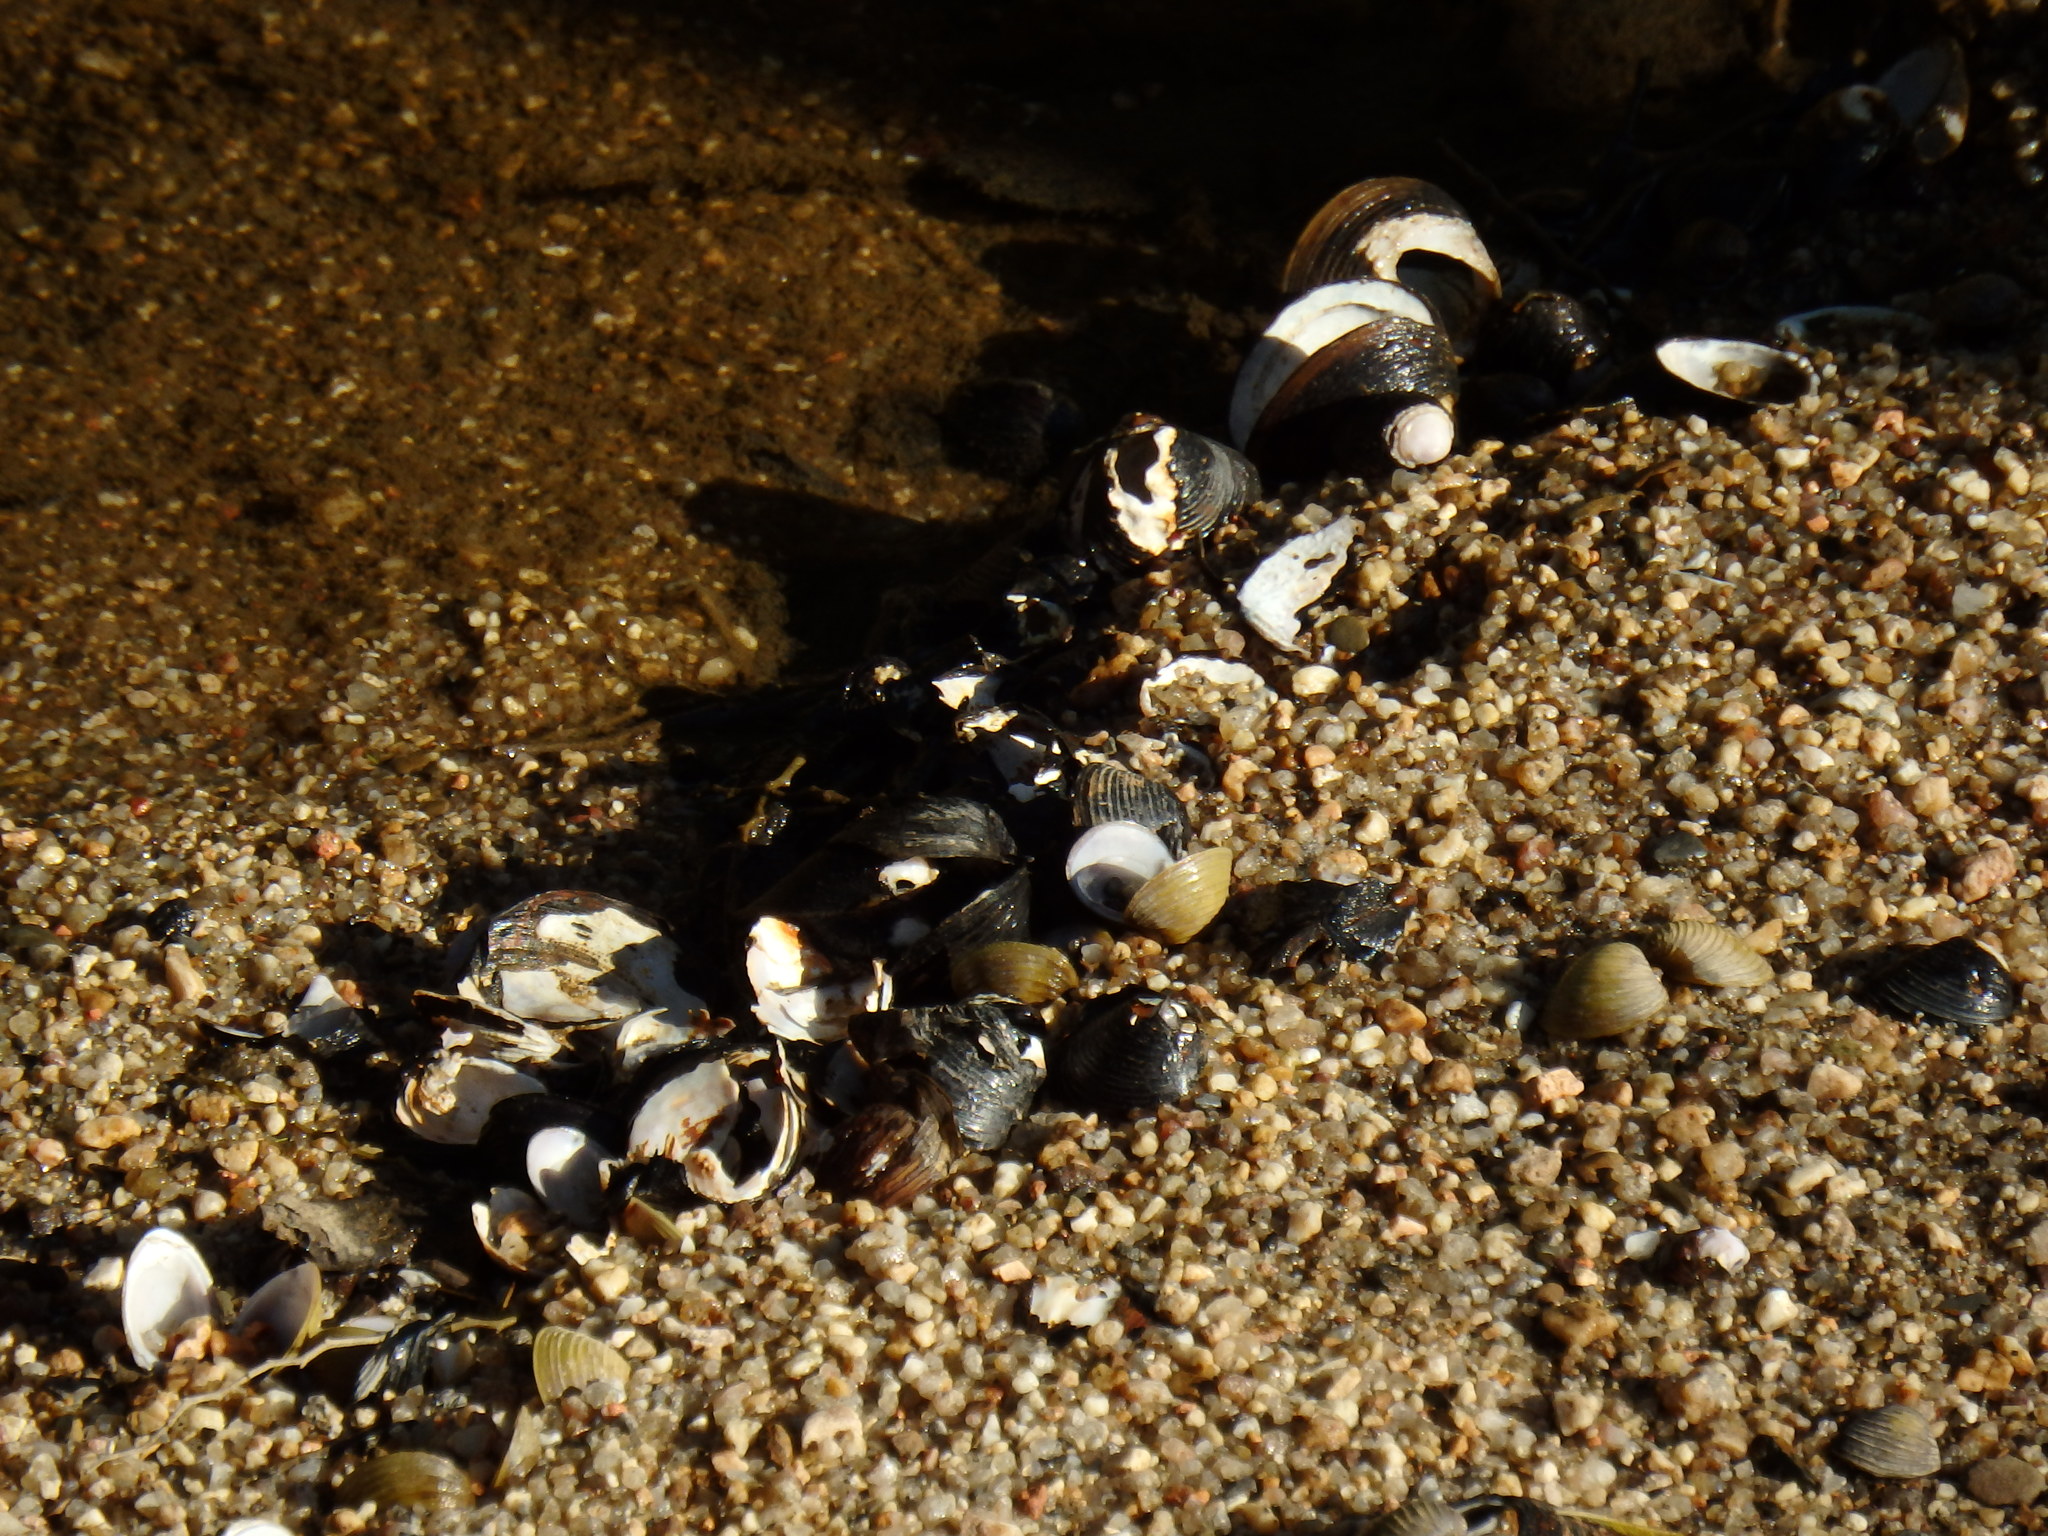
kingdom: Animalia
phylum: Mollusca
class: Bivalvia
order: Venerida
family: Cyrenidae
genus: Corbicula
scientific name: Corbicula fluminea
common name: Asian clam
